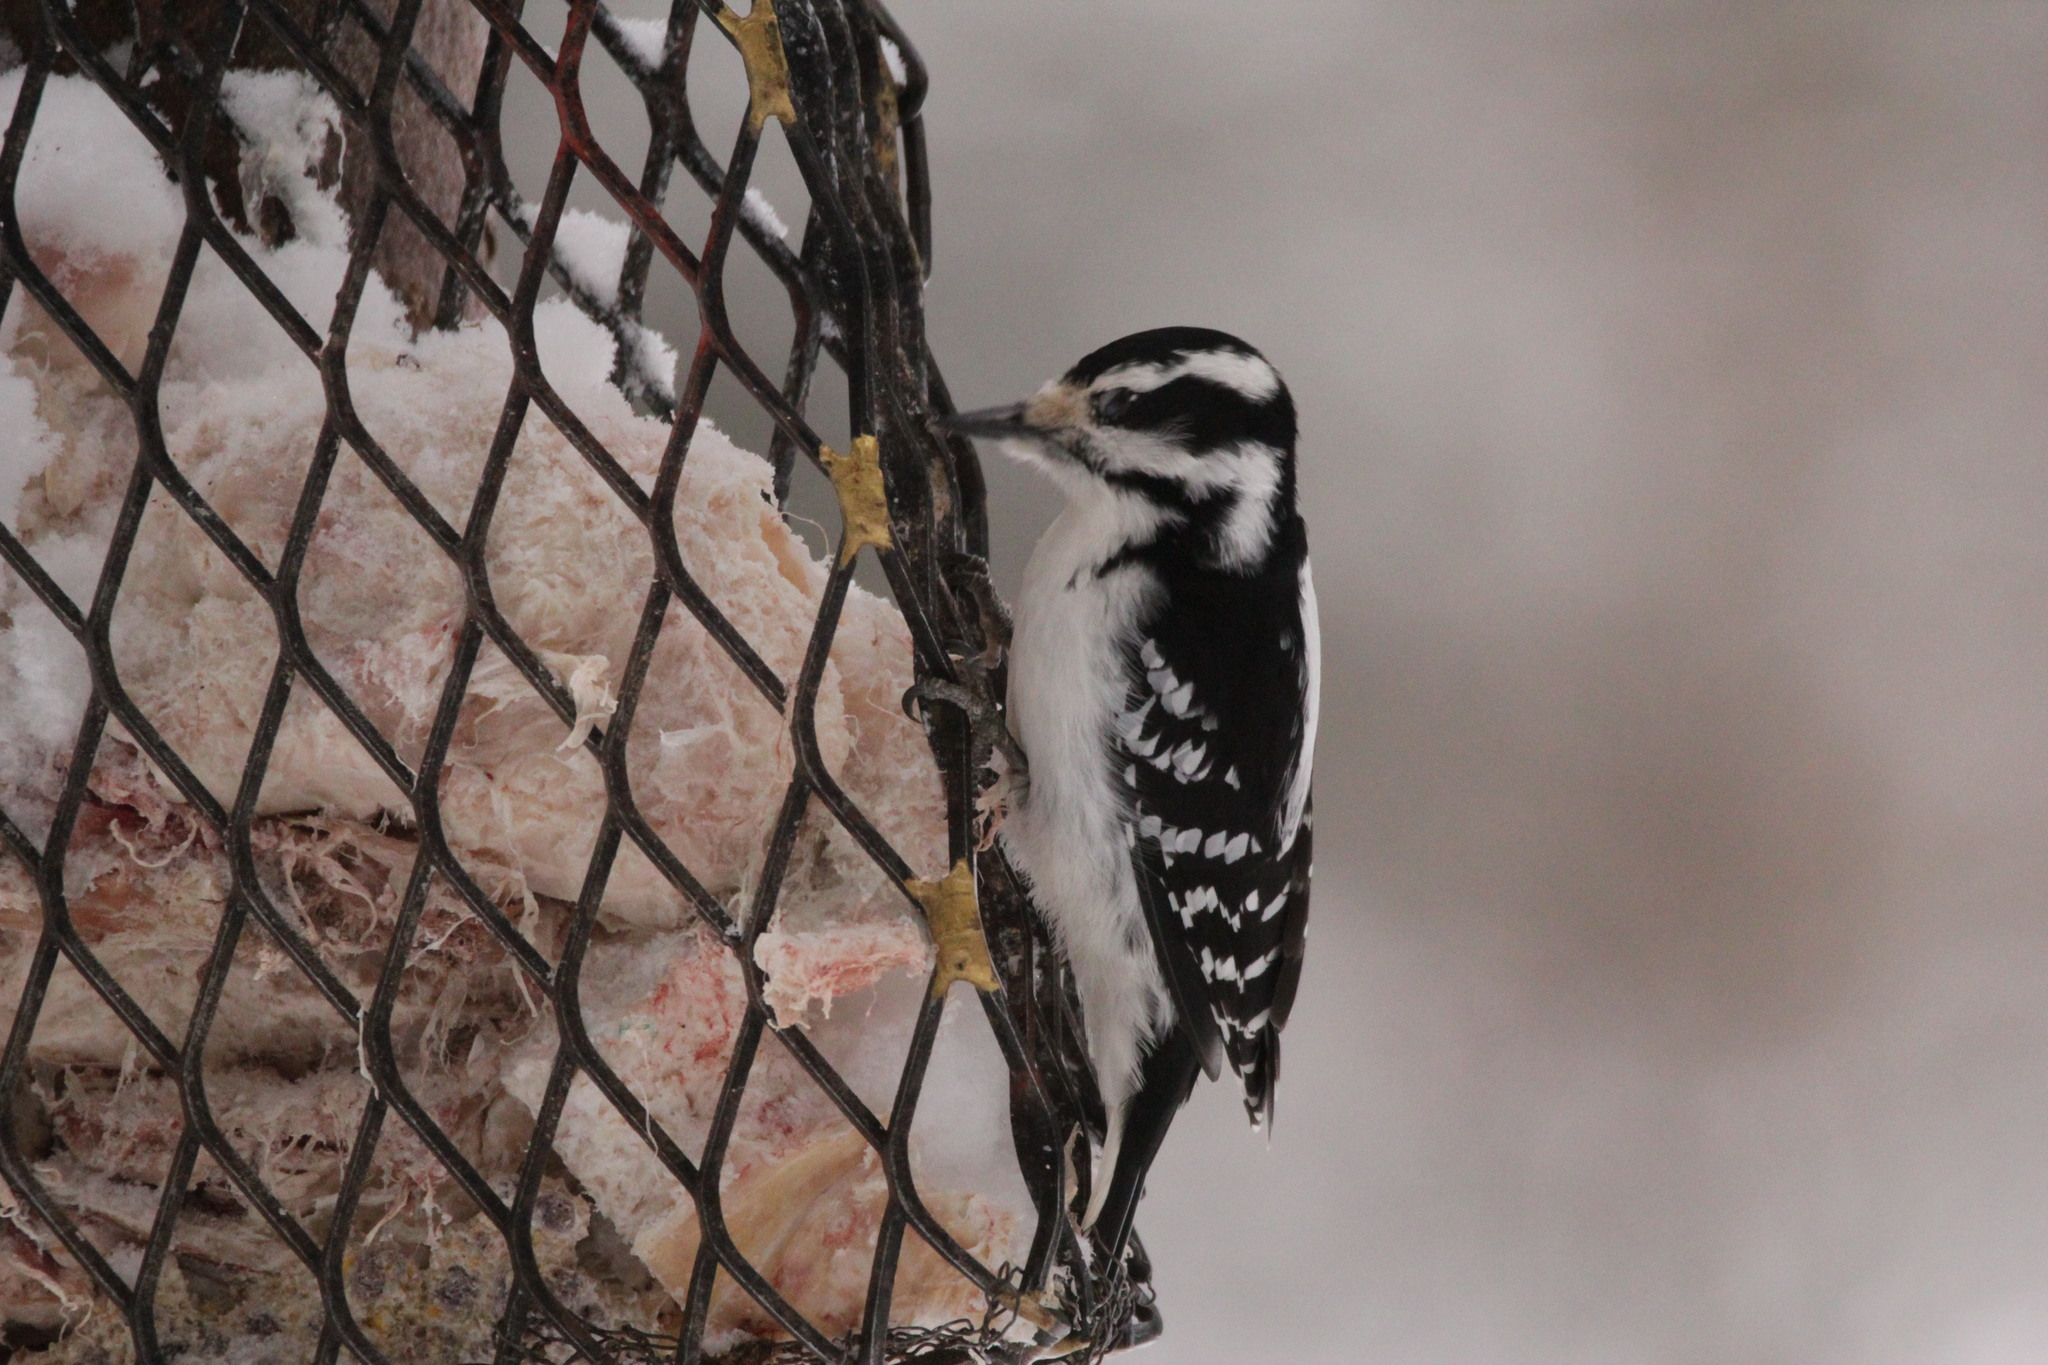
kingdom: Animalia
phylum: Chordata
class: Aves
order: Piciformes
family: Picidae
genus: Leuconotopicus
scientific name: Leuconotopicus villosus
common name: Hairy woodpecker
